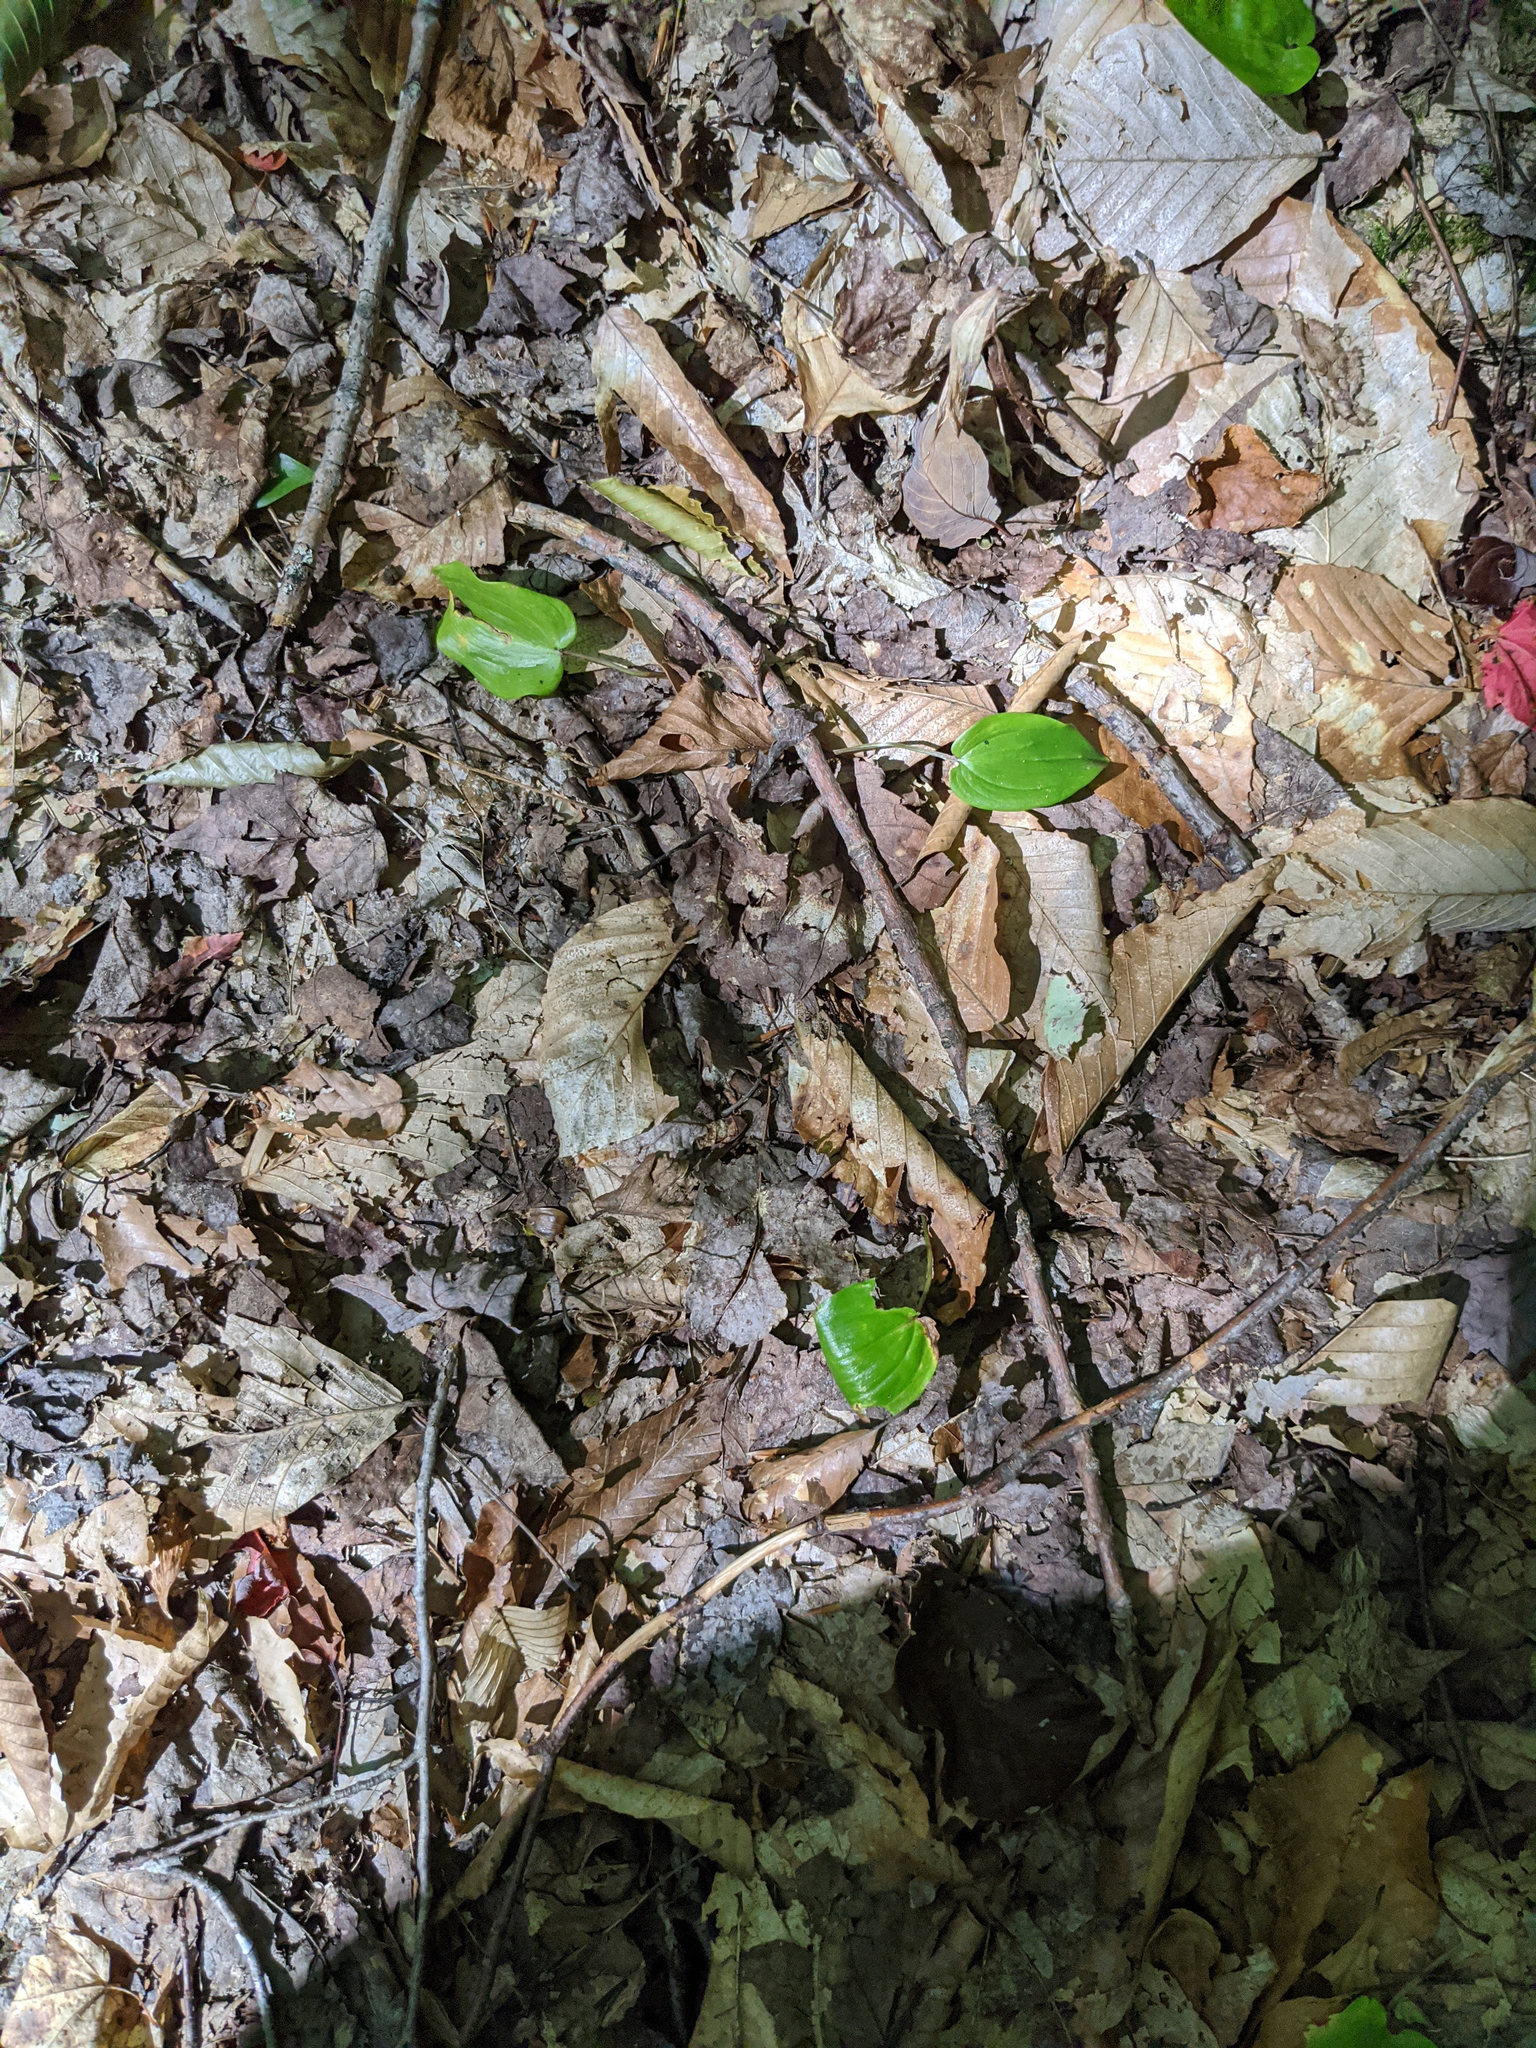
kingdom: Plantae
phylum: Tracheophyta
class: Liliopsida
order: Asparagales
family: Asparagaceae
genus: Maianthemum
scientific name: Maianthemum canadense
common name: False lily-of-the-valley
